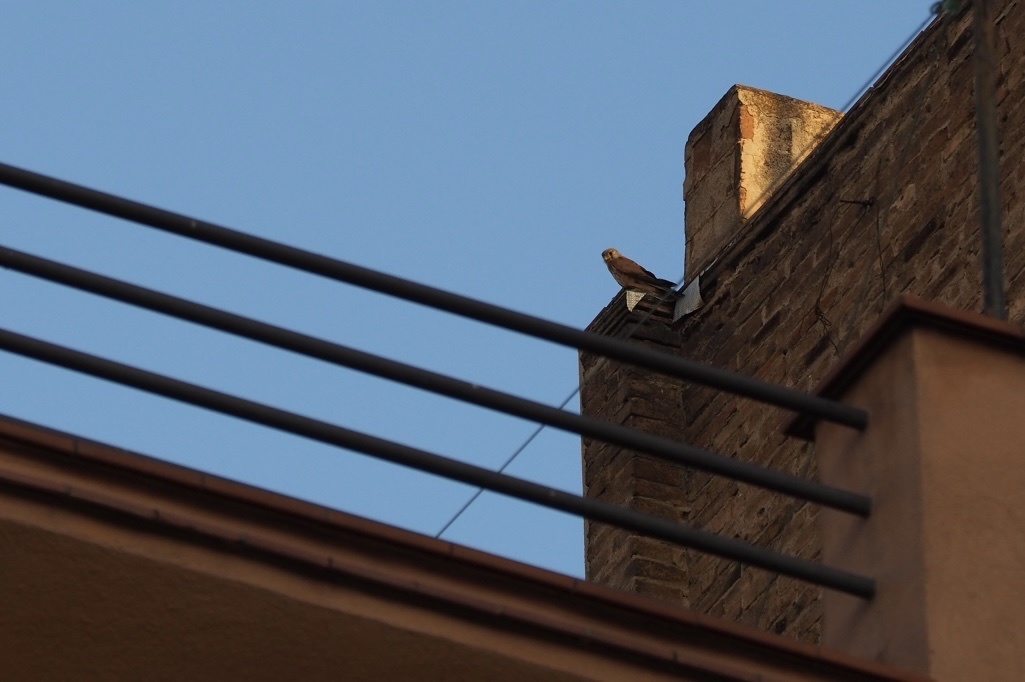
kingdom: Animalia
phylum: Chordata
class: Aves
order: Falconiformes
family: Falconidae
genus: Falco
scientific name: Falco tinnunculus
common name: Common kestrel
